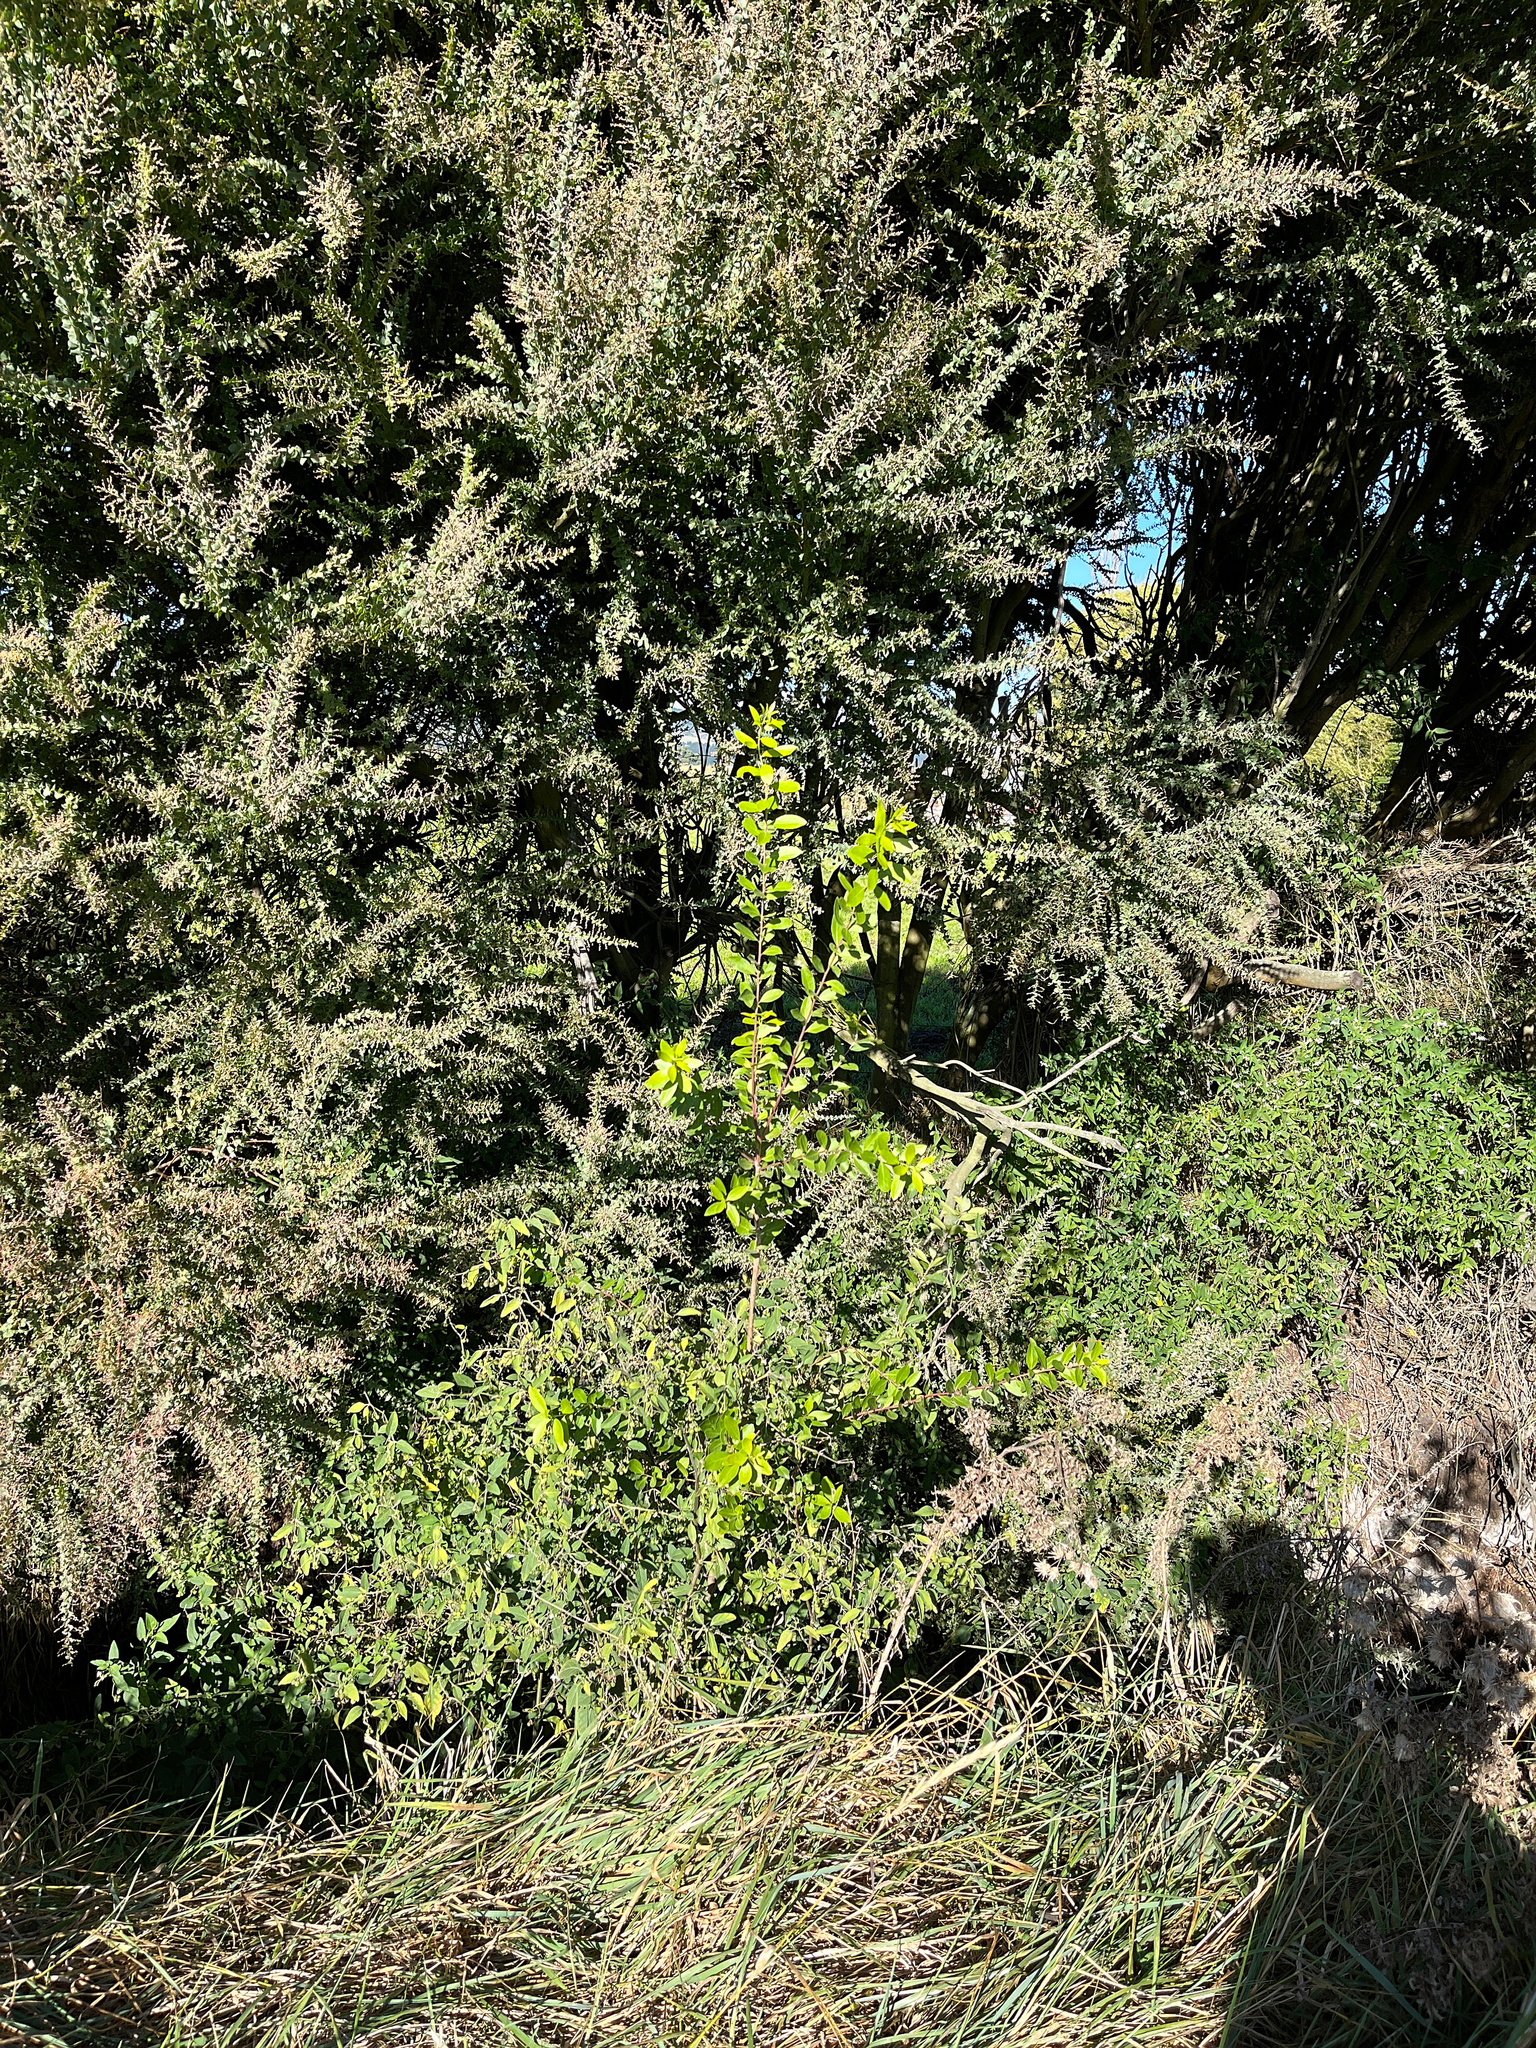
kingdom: Plantae
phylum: Tracheophyta
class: Magnoliopsida
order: Celastrales
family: Celastraceae
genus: Maytenus
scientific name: Maytenus boaria
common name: Mayten
